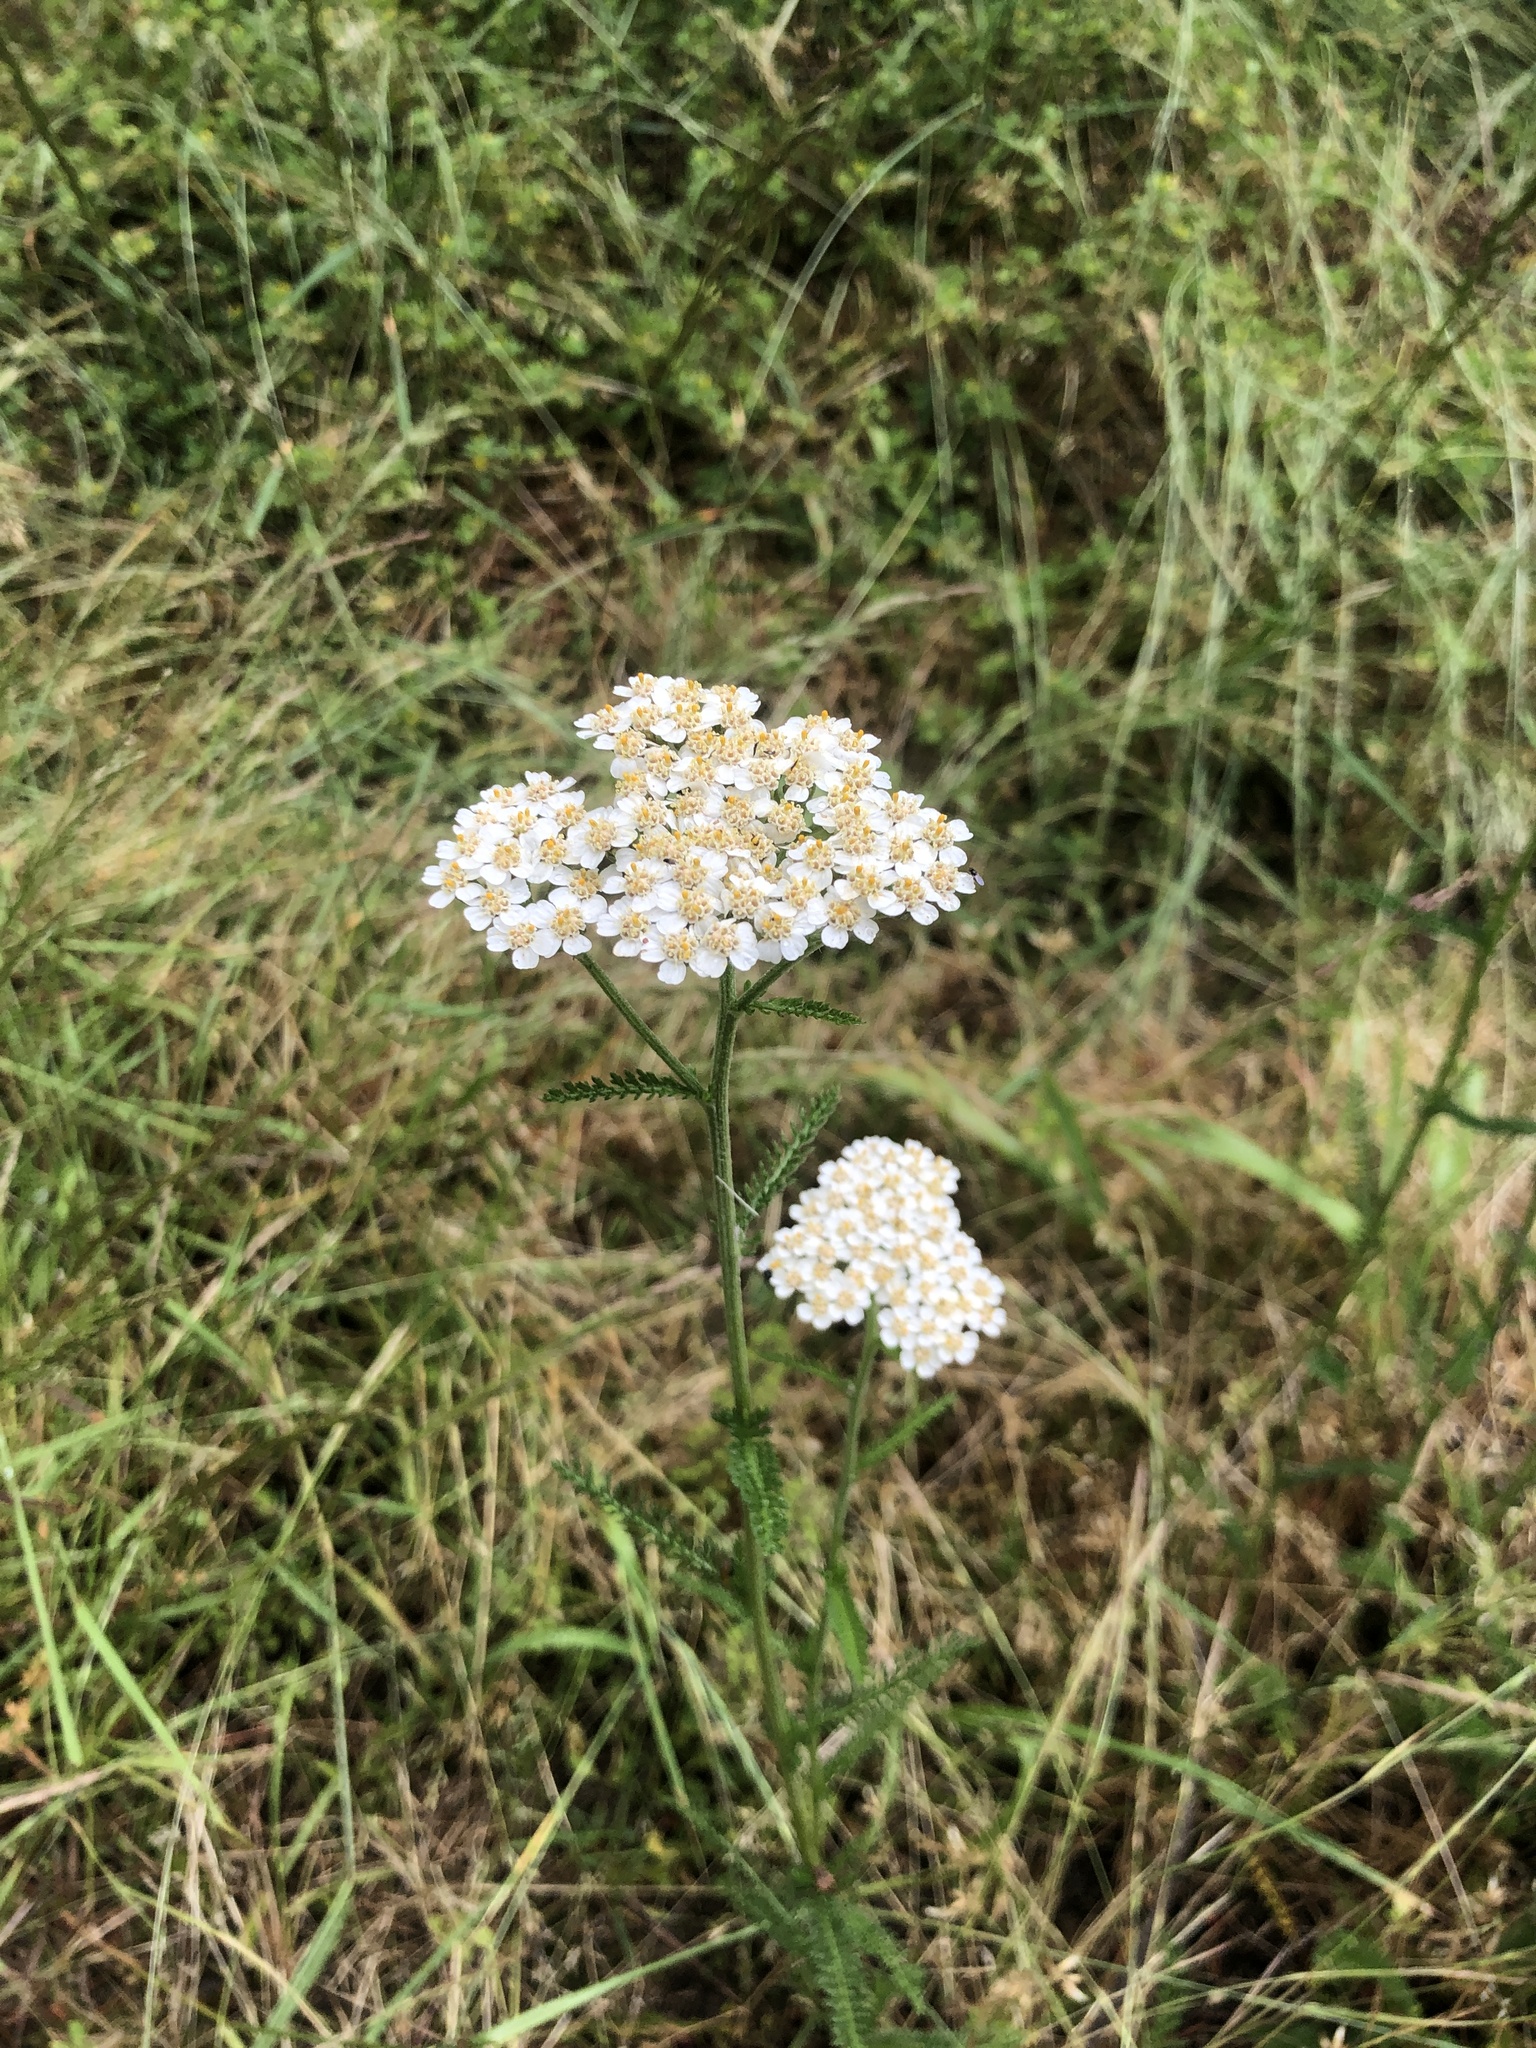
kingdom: Plantae
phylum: Tracheophyta
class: Magnoliopsida
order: Asterales
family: Asteraceae
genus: Achillea
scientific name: Achillea millefolium
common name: Yarrow
